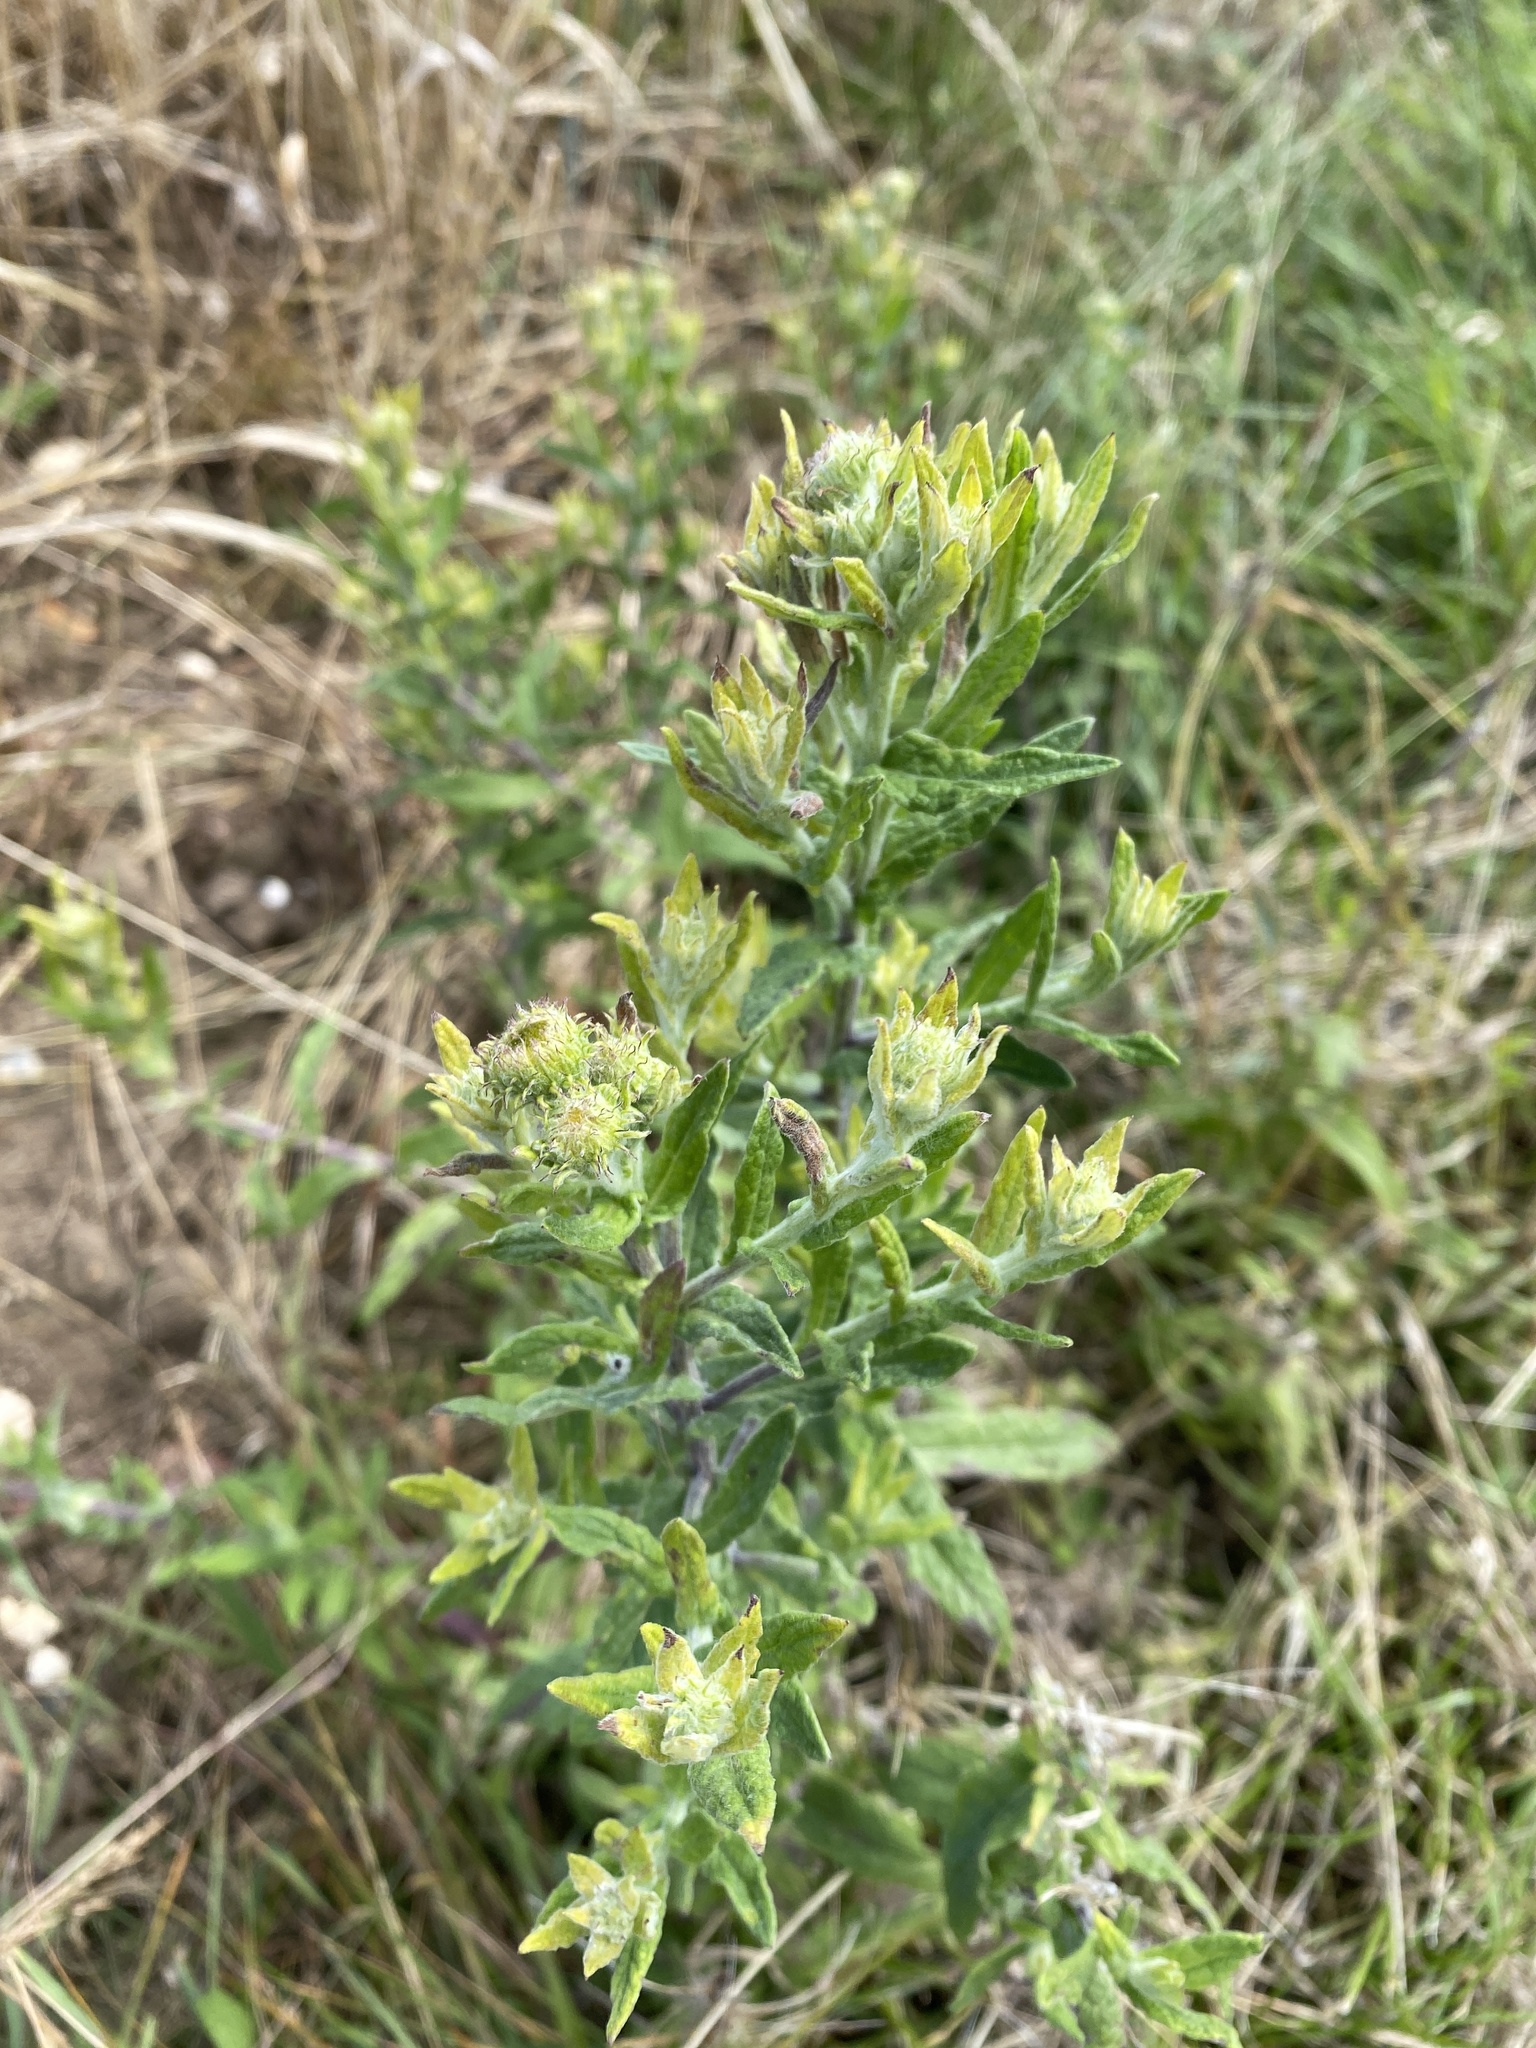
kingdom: Plantae
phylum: Tracheophyta
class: Magnoliopsida
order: Asterales
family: Asteraceae
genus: Pulicaria
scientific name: Pulicaria dysenterica
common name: Common fleabane
